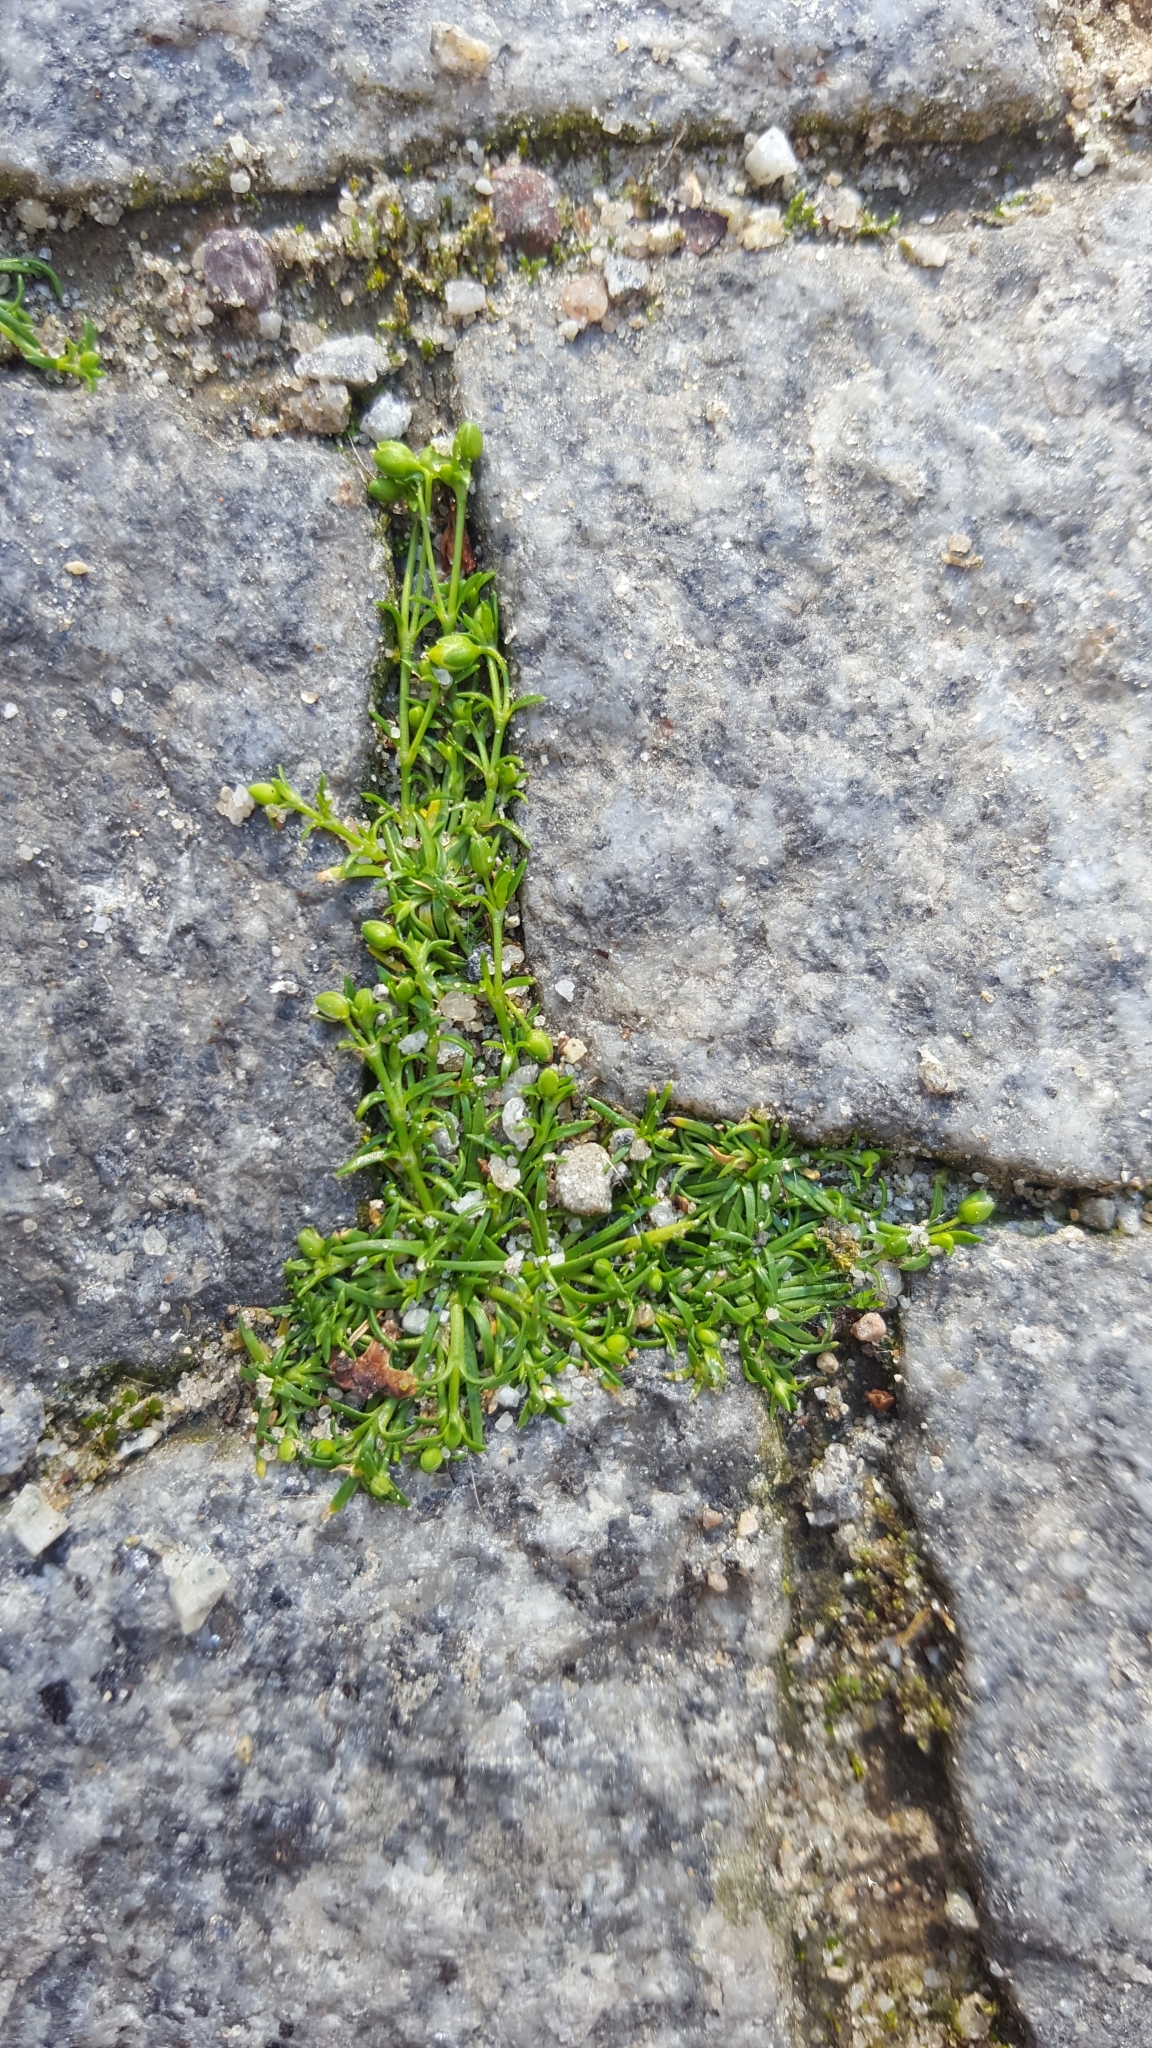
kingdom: Plantae
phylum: Tracheophyta
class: Magnoliopsida
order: Caryophyllales
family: Caryophyllaceae
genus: Sagina
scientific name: Sagina procumbens
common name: Procumbent pearlwort
